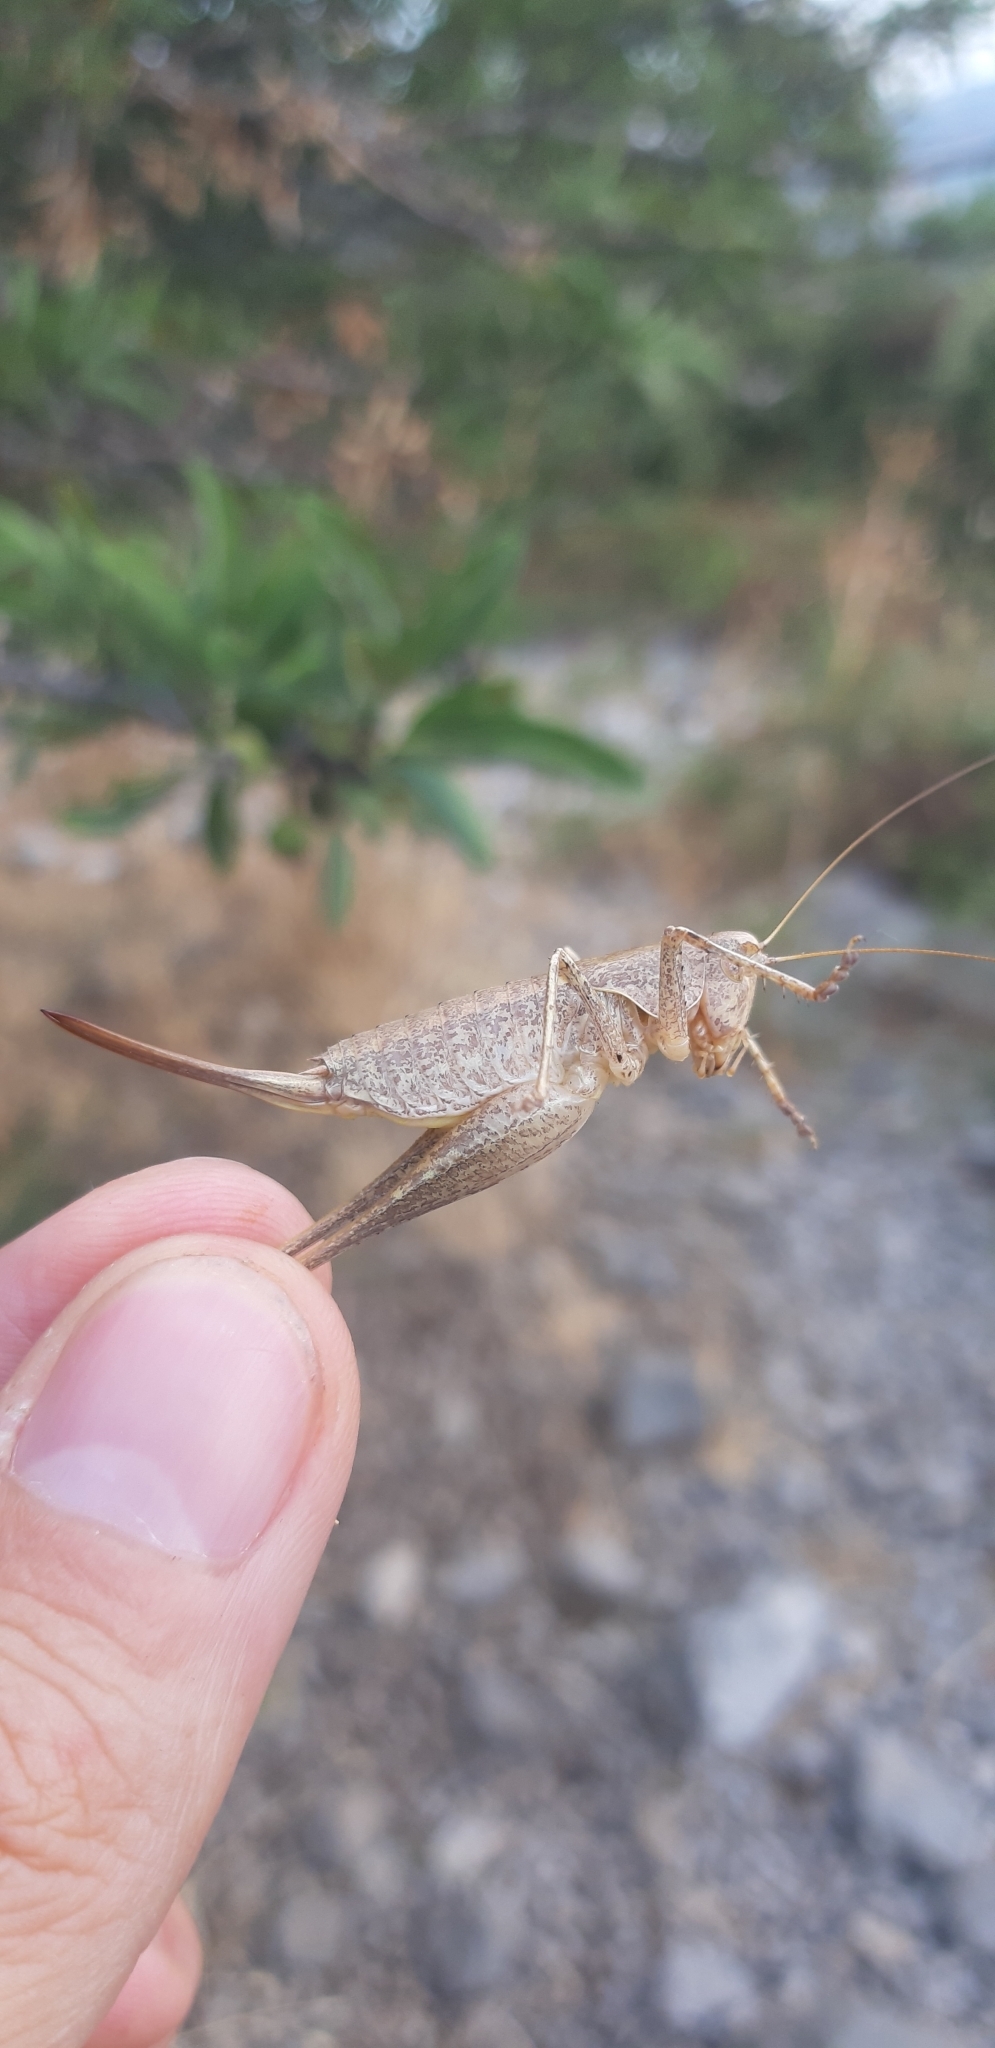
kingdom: Animalia
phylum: Arthropoda
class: Insecta
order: Orthoptera
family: Tettigoniidae
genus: Rhacocleis
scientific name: Rhacocleis neglecta
